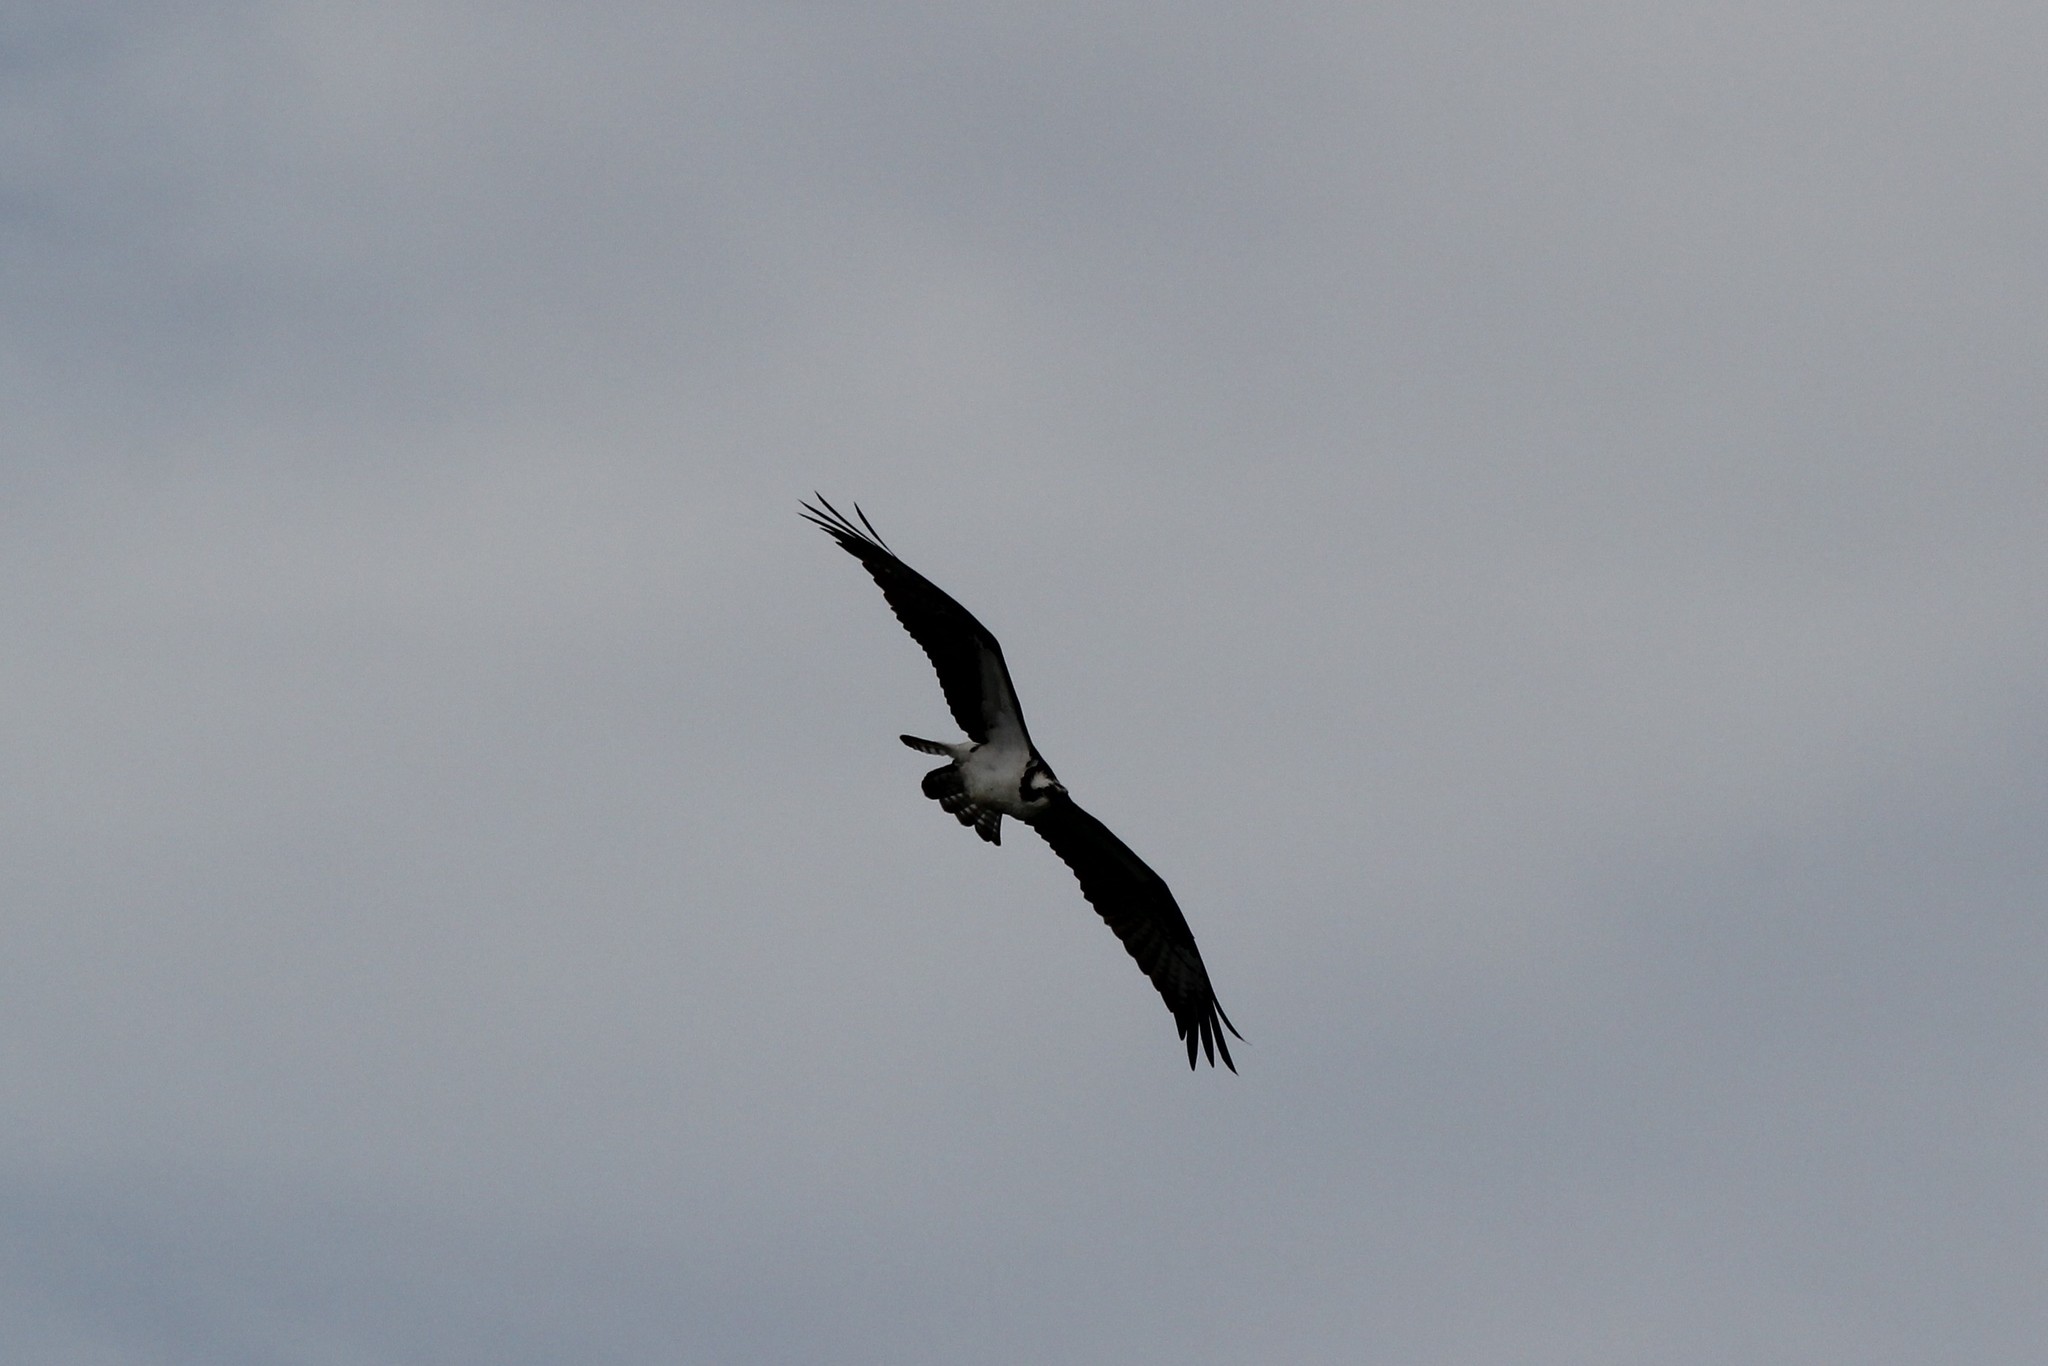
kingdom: Animalia
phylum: Chordata
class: Aves
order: Accipitriformes
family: Pandionidae
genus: Pandion
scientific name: Pandion haliaetus
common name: Osprey
